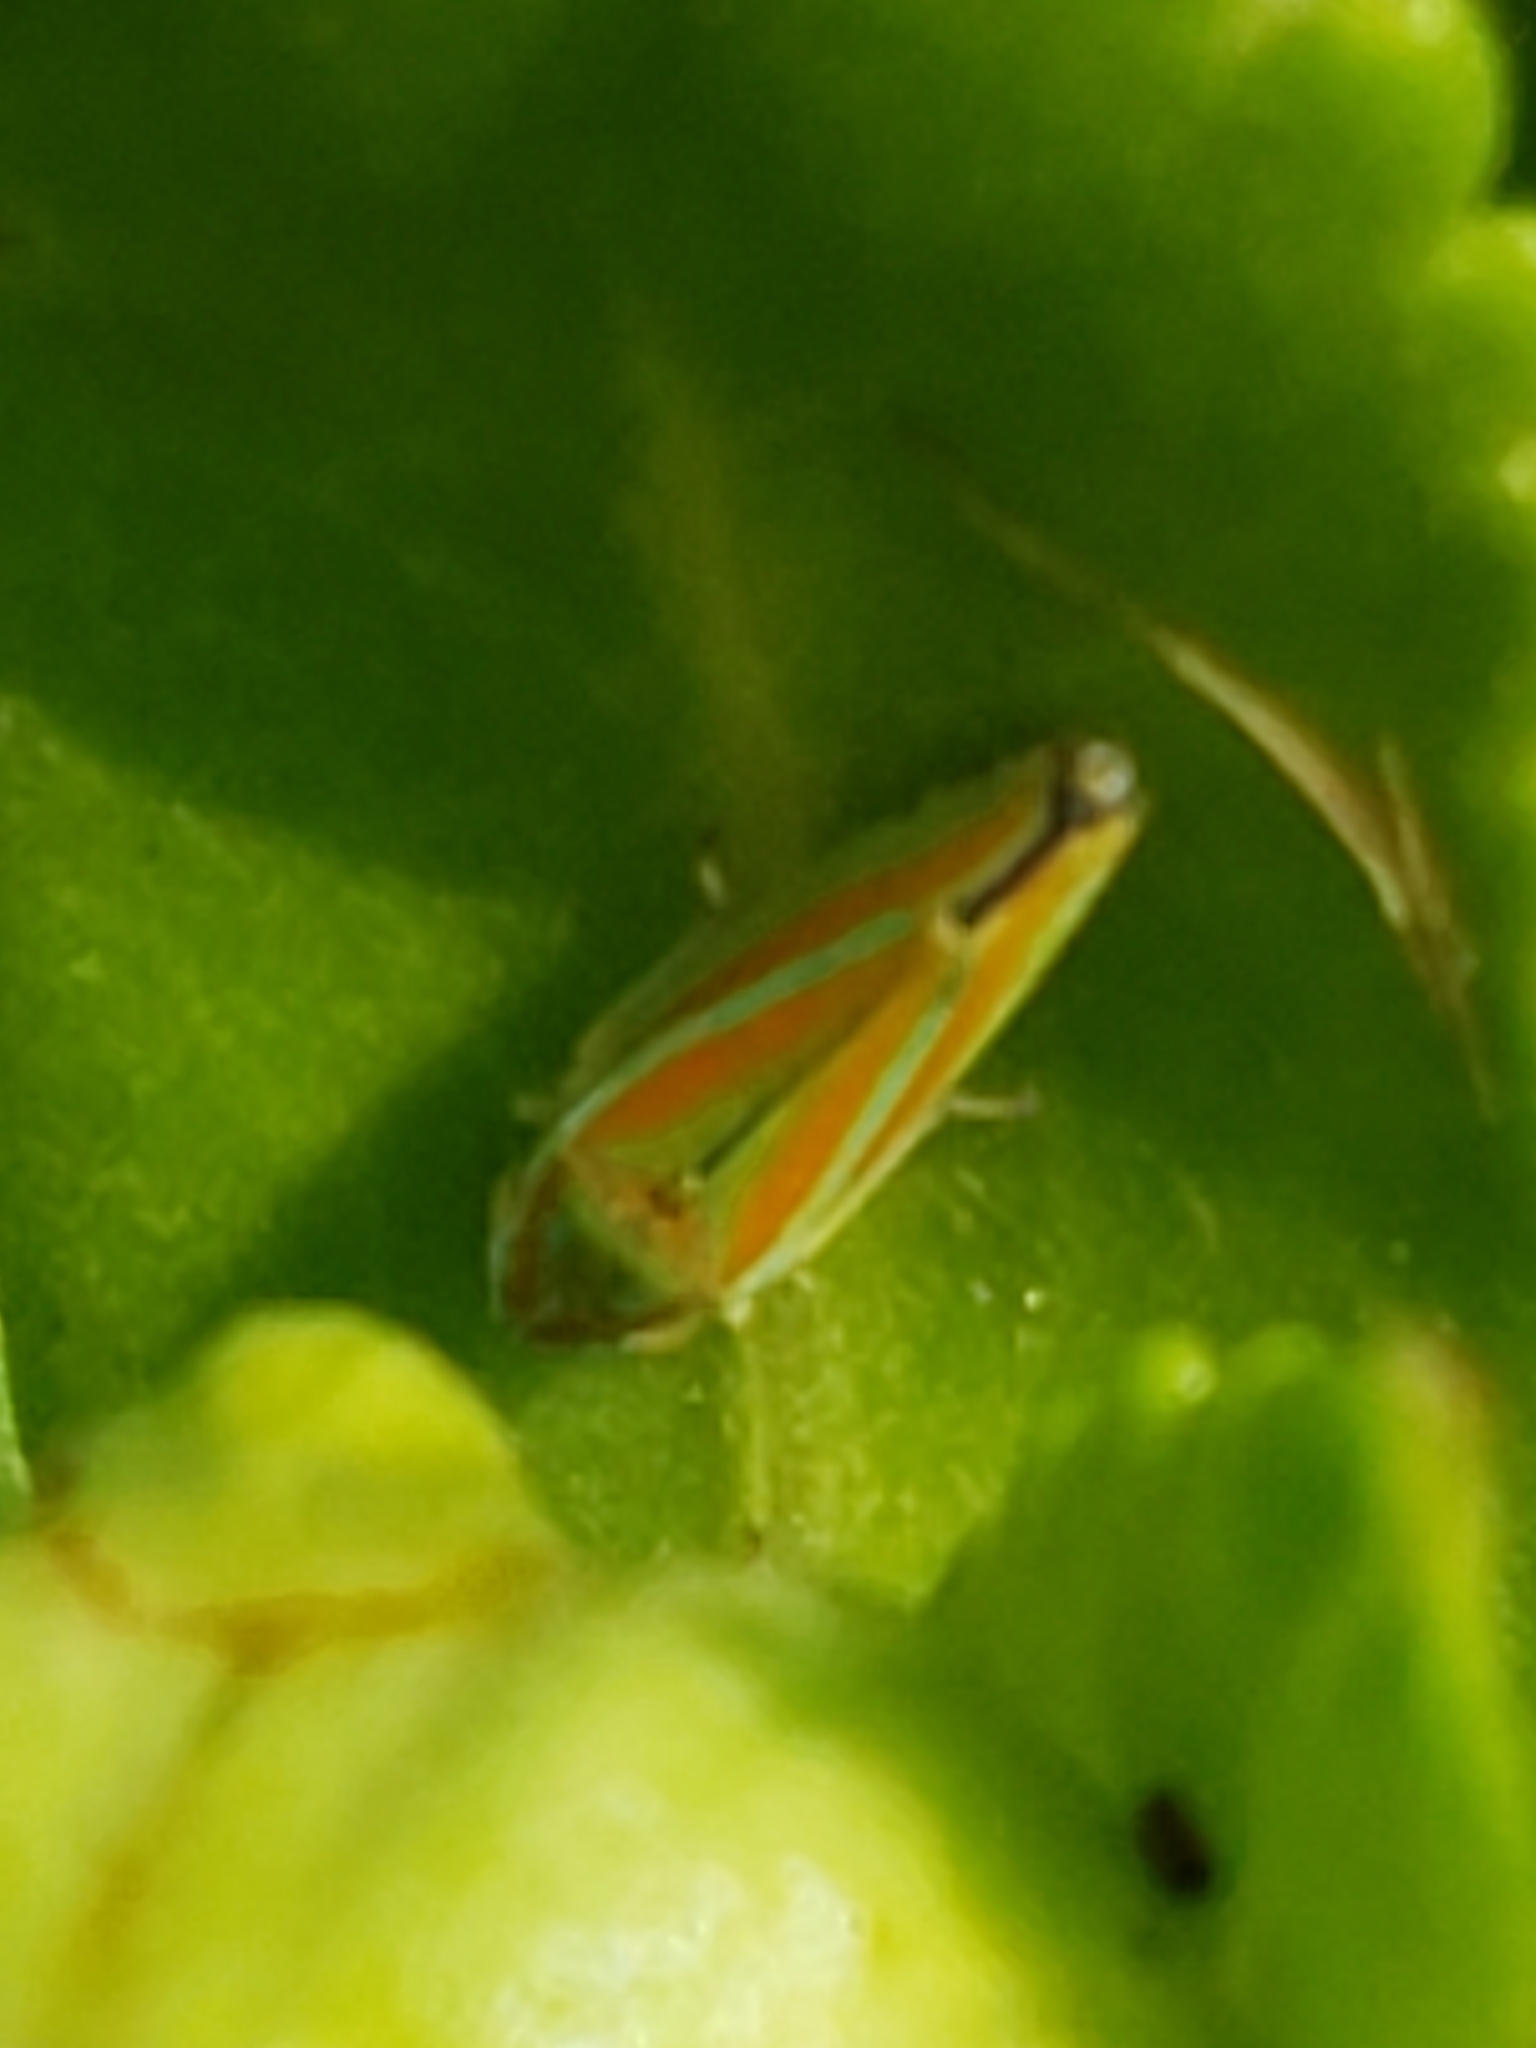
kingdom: Animalia
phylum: Arthropoda
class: Insecta
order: Hemiptera
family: Cicadellidae
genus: Graphocephala
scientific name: Graphocephala versuta
